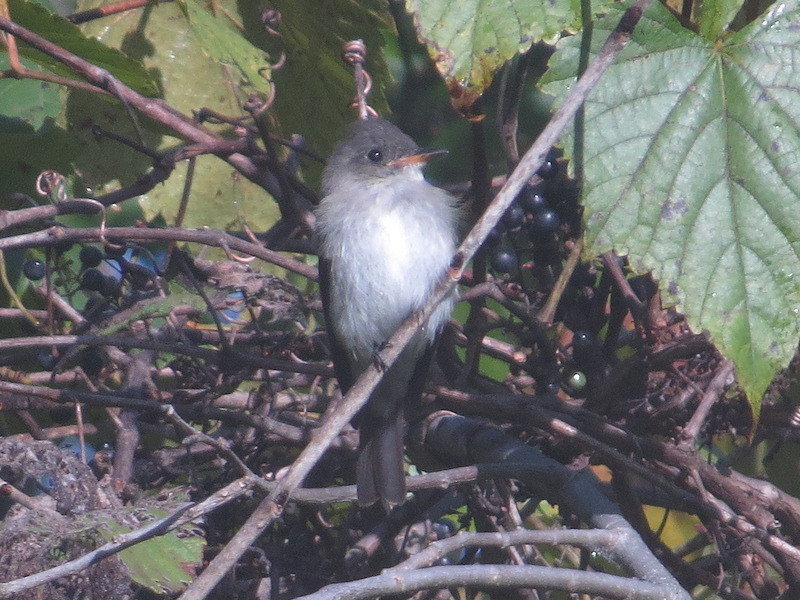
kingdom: Animalia
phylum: Chordata
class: Aves
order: Passeriformes
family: Tyrannidae
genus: Contopus
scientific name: Contopus virens
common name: Eastern wood-pewee
